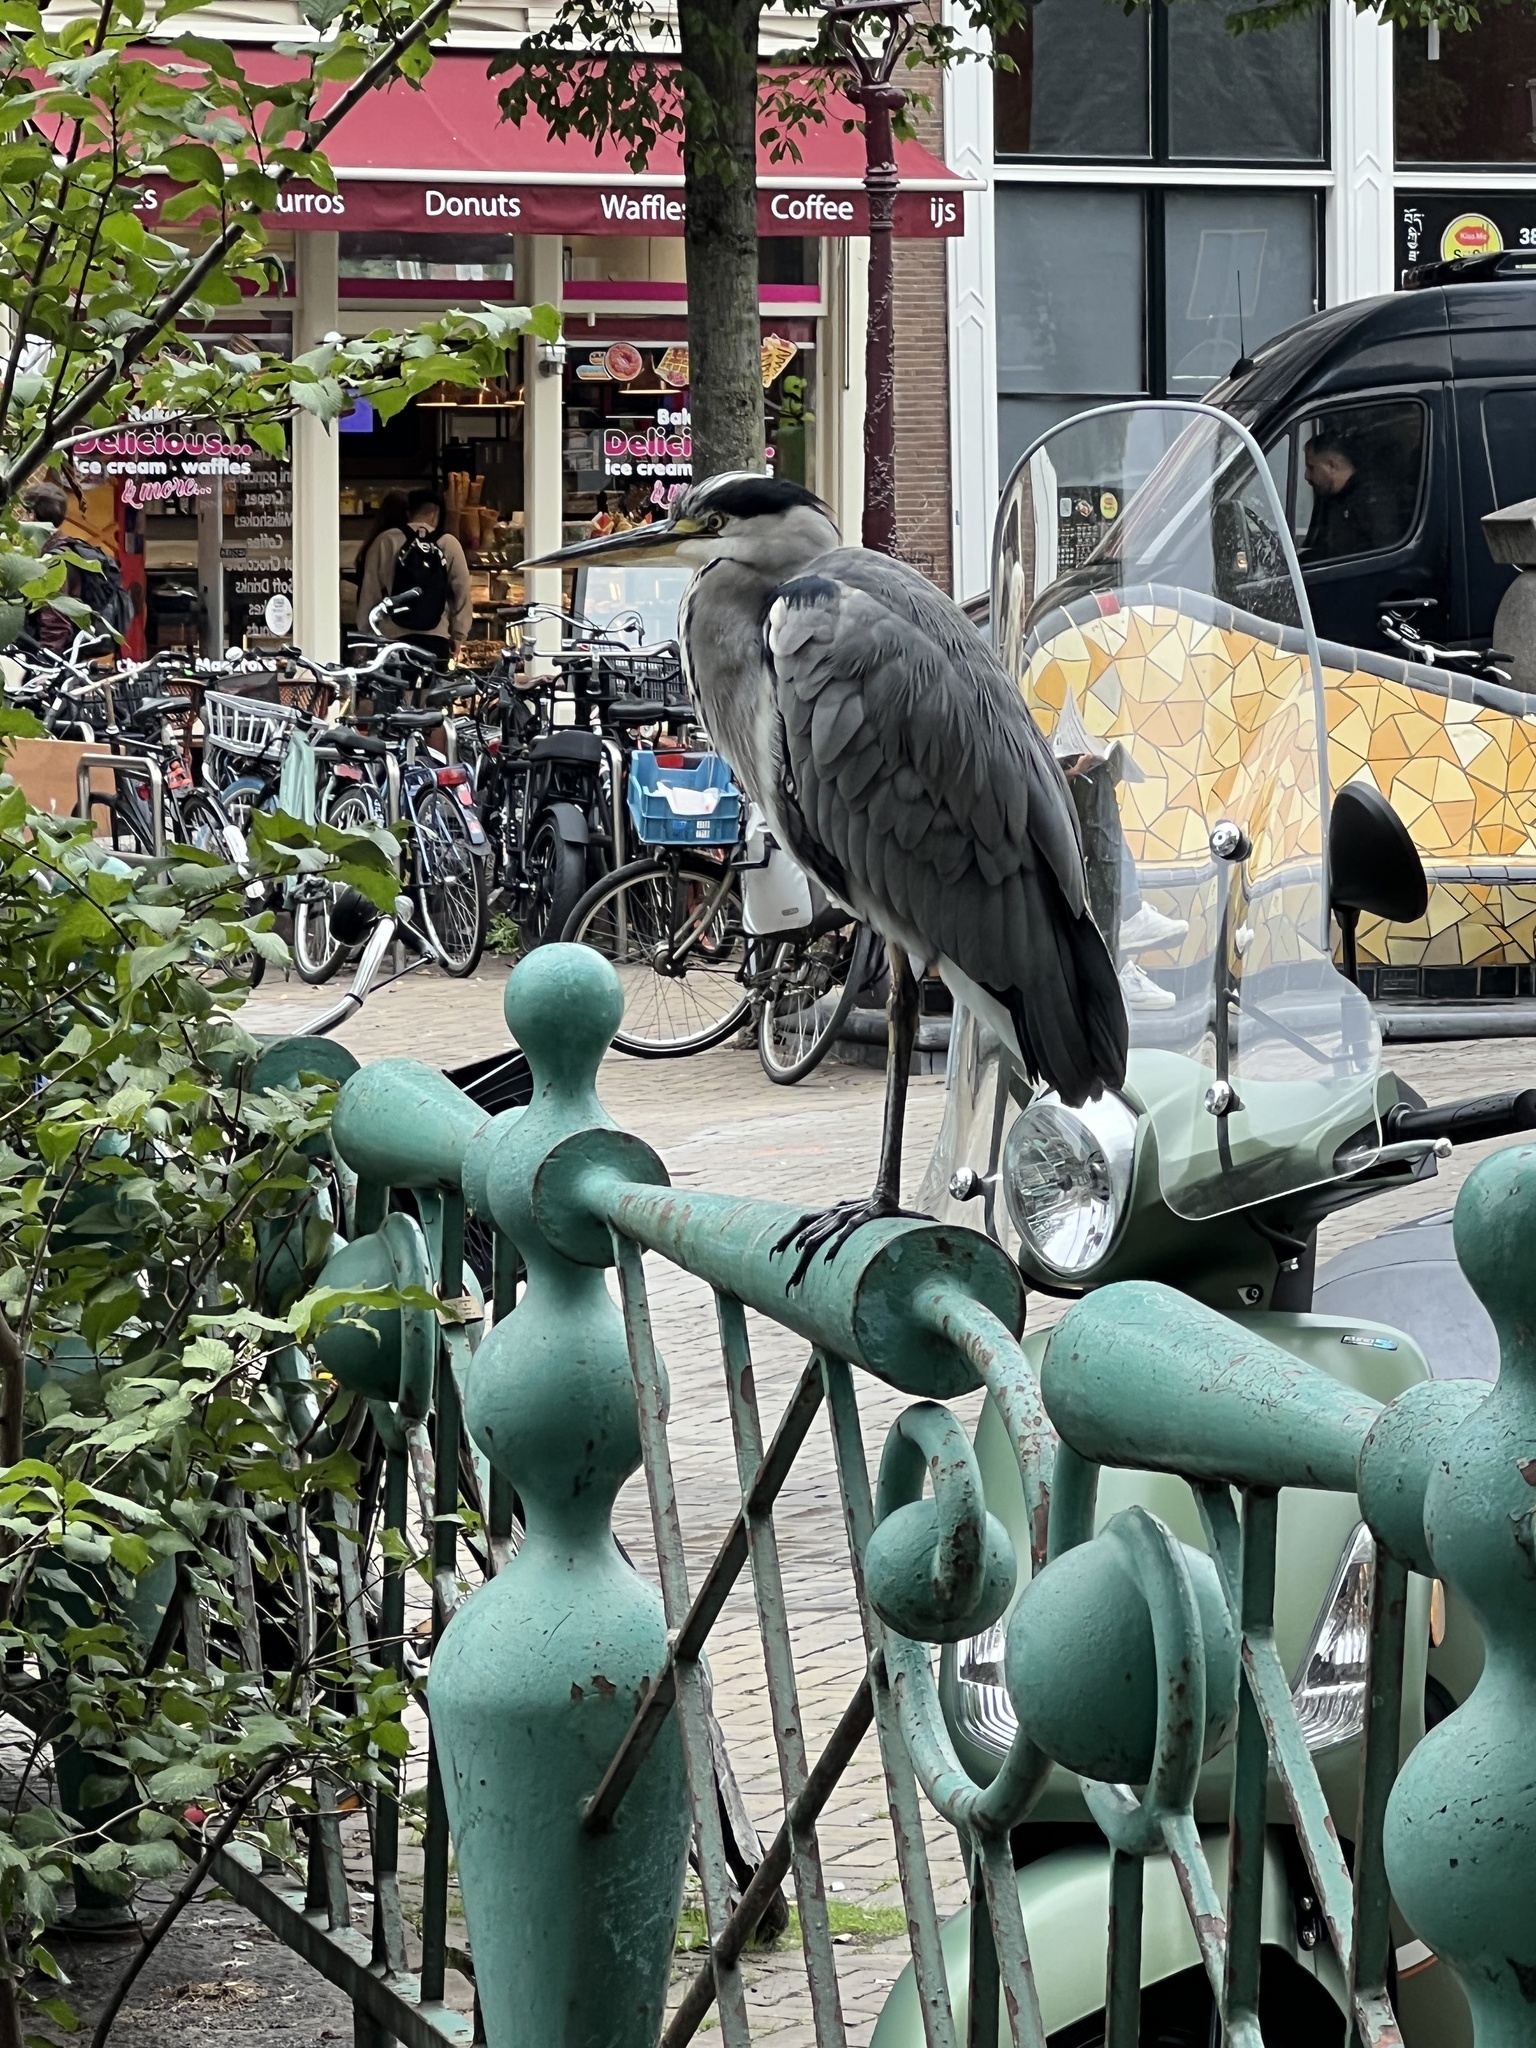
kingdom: Animalia
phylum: Chordata
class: Aves
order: Pelecaniformes
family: Ardeidae
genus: Ardea
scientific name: Ardea cinerea
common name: Grey heron
